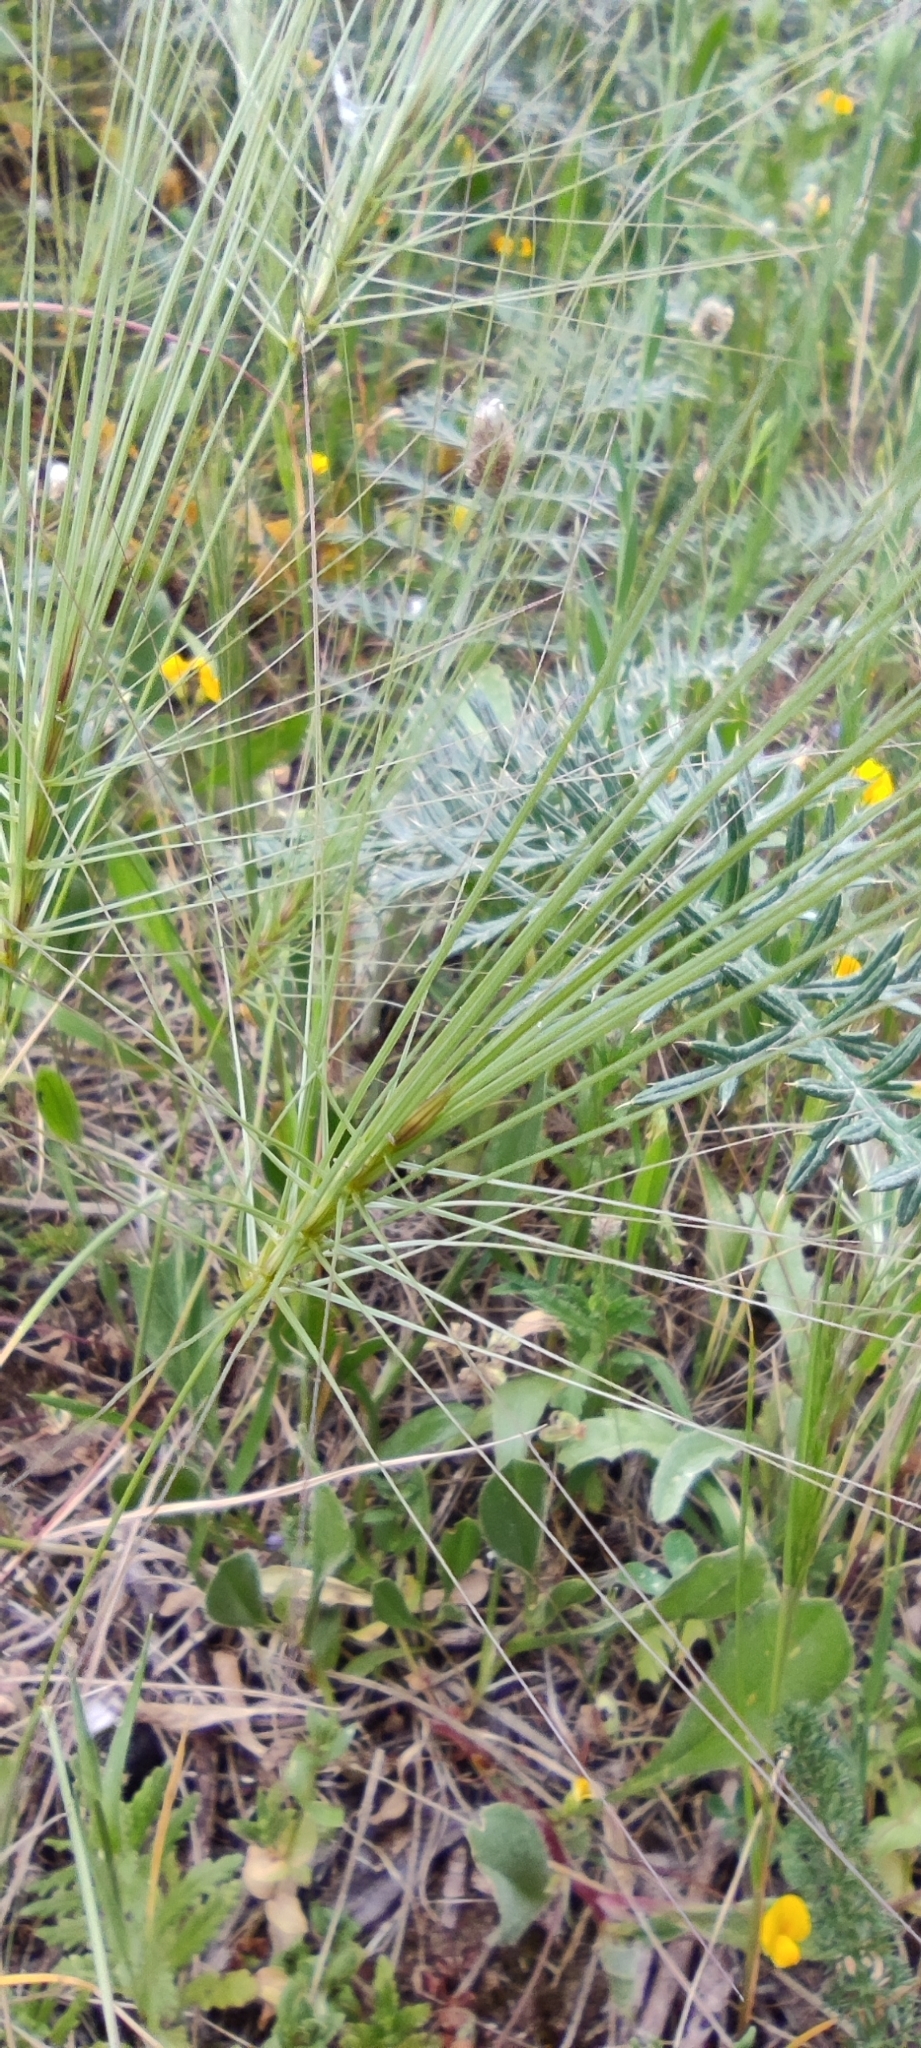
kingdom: Plantae
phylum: Tracheophyta
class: Liliopsida
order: Poales
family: Poaceae
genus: Taeniatherum
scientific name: Taeniatherum caput-medusae
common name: Medusahead
